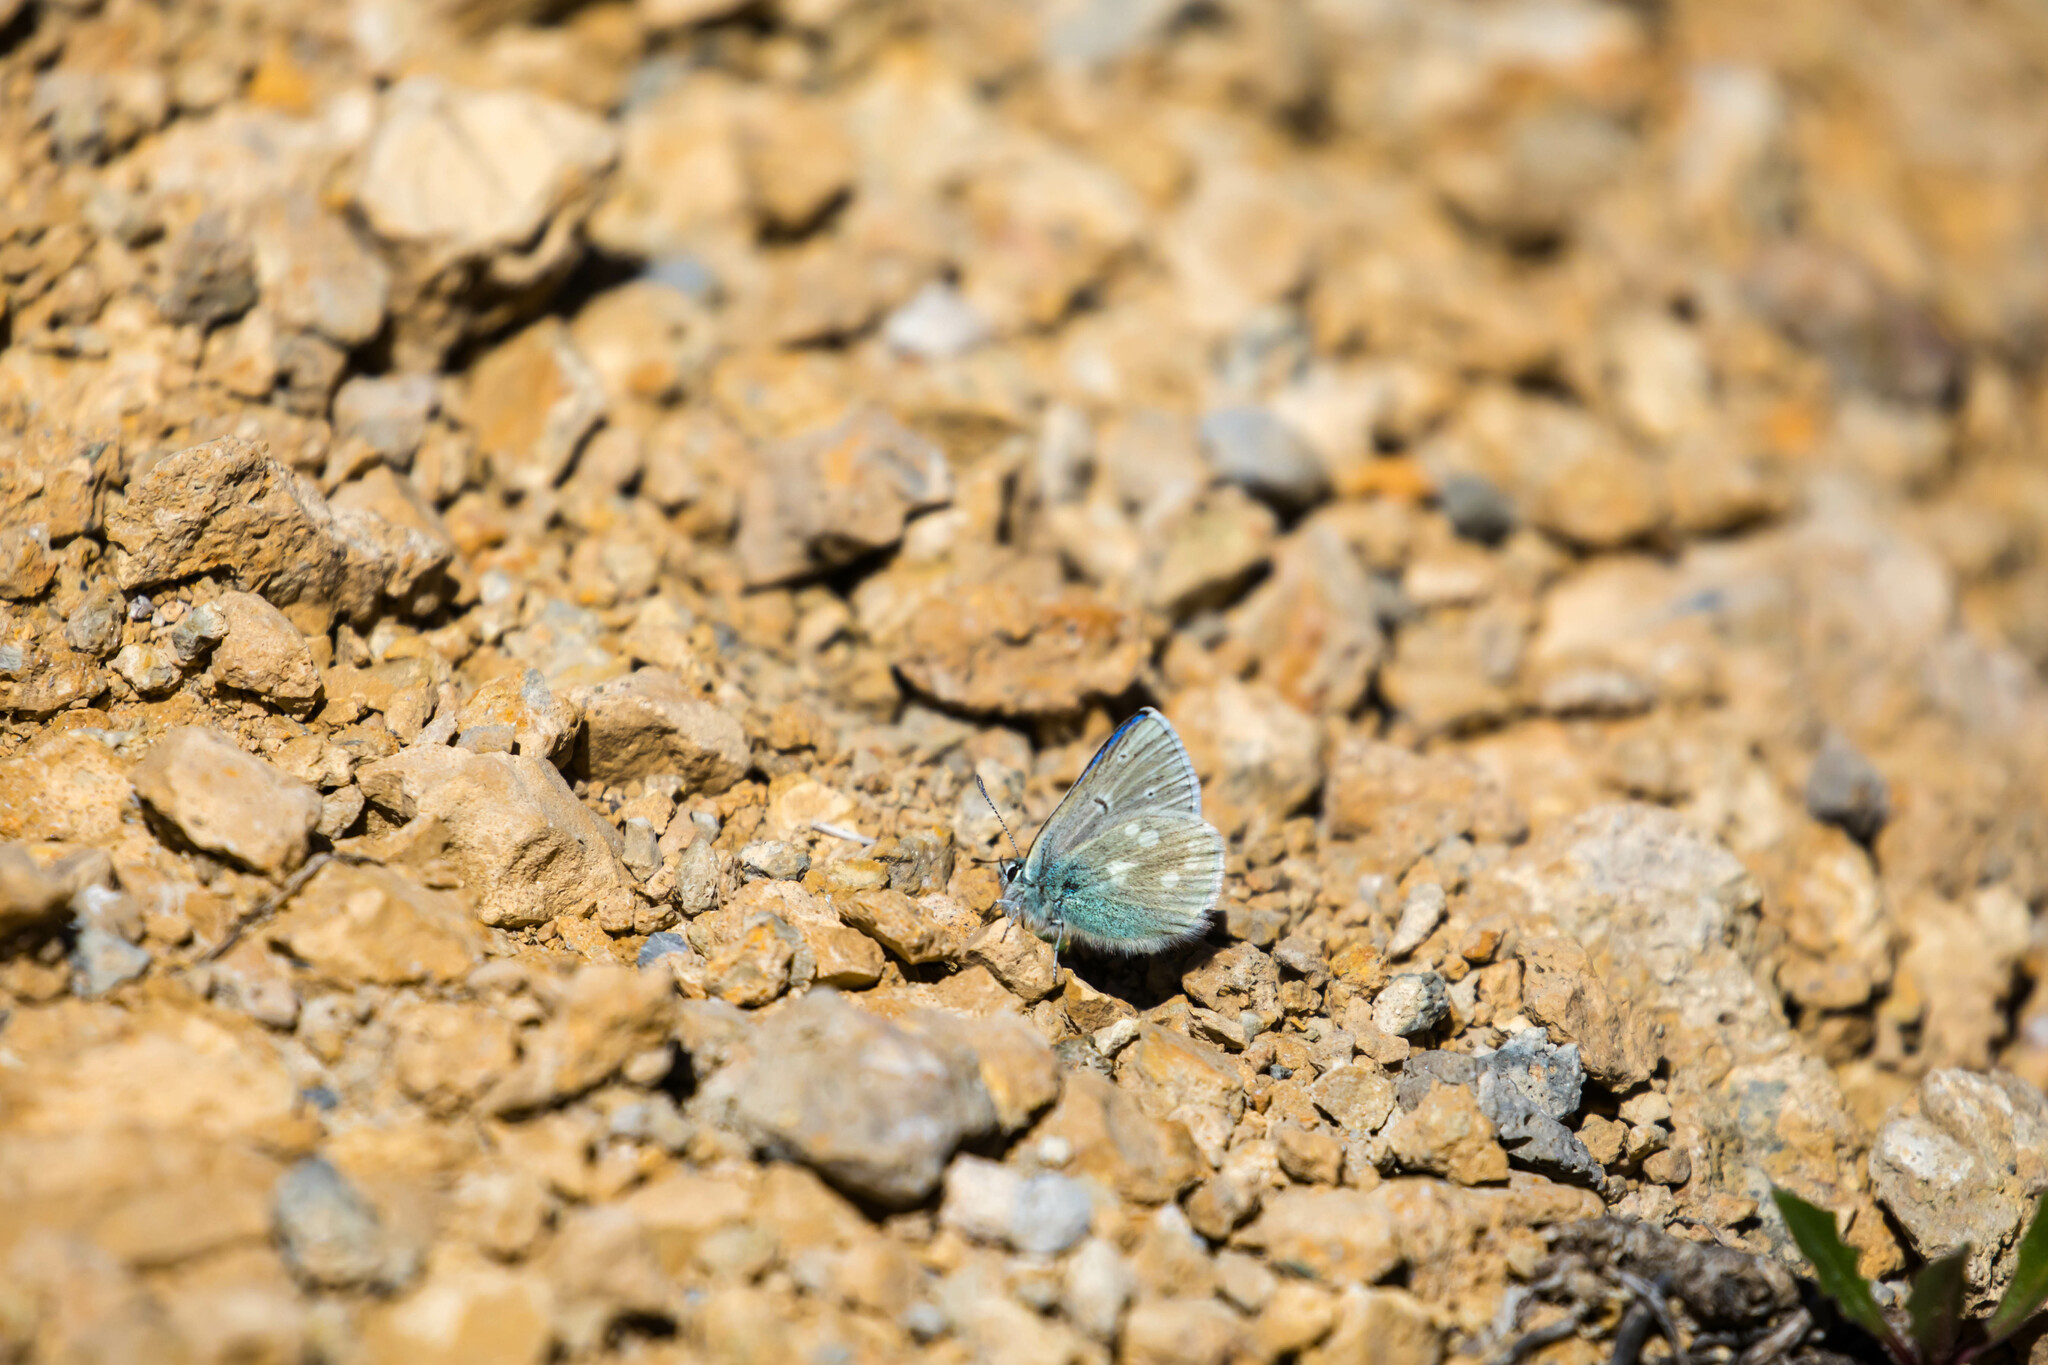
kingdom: Animalia
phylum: Arthropoda
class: Insecta
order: Lepidoptera
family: Lycaenidae
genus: Albulina
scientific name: Albulina orbitulus
